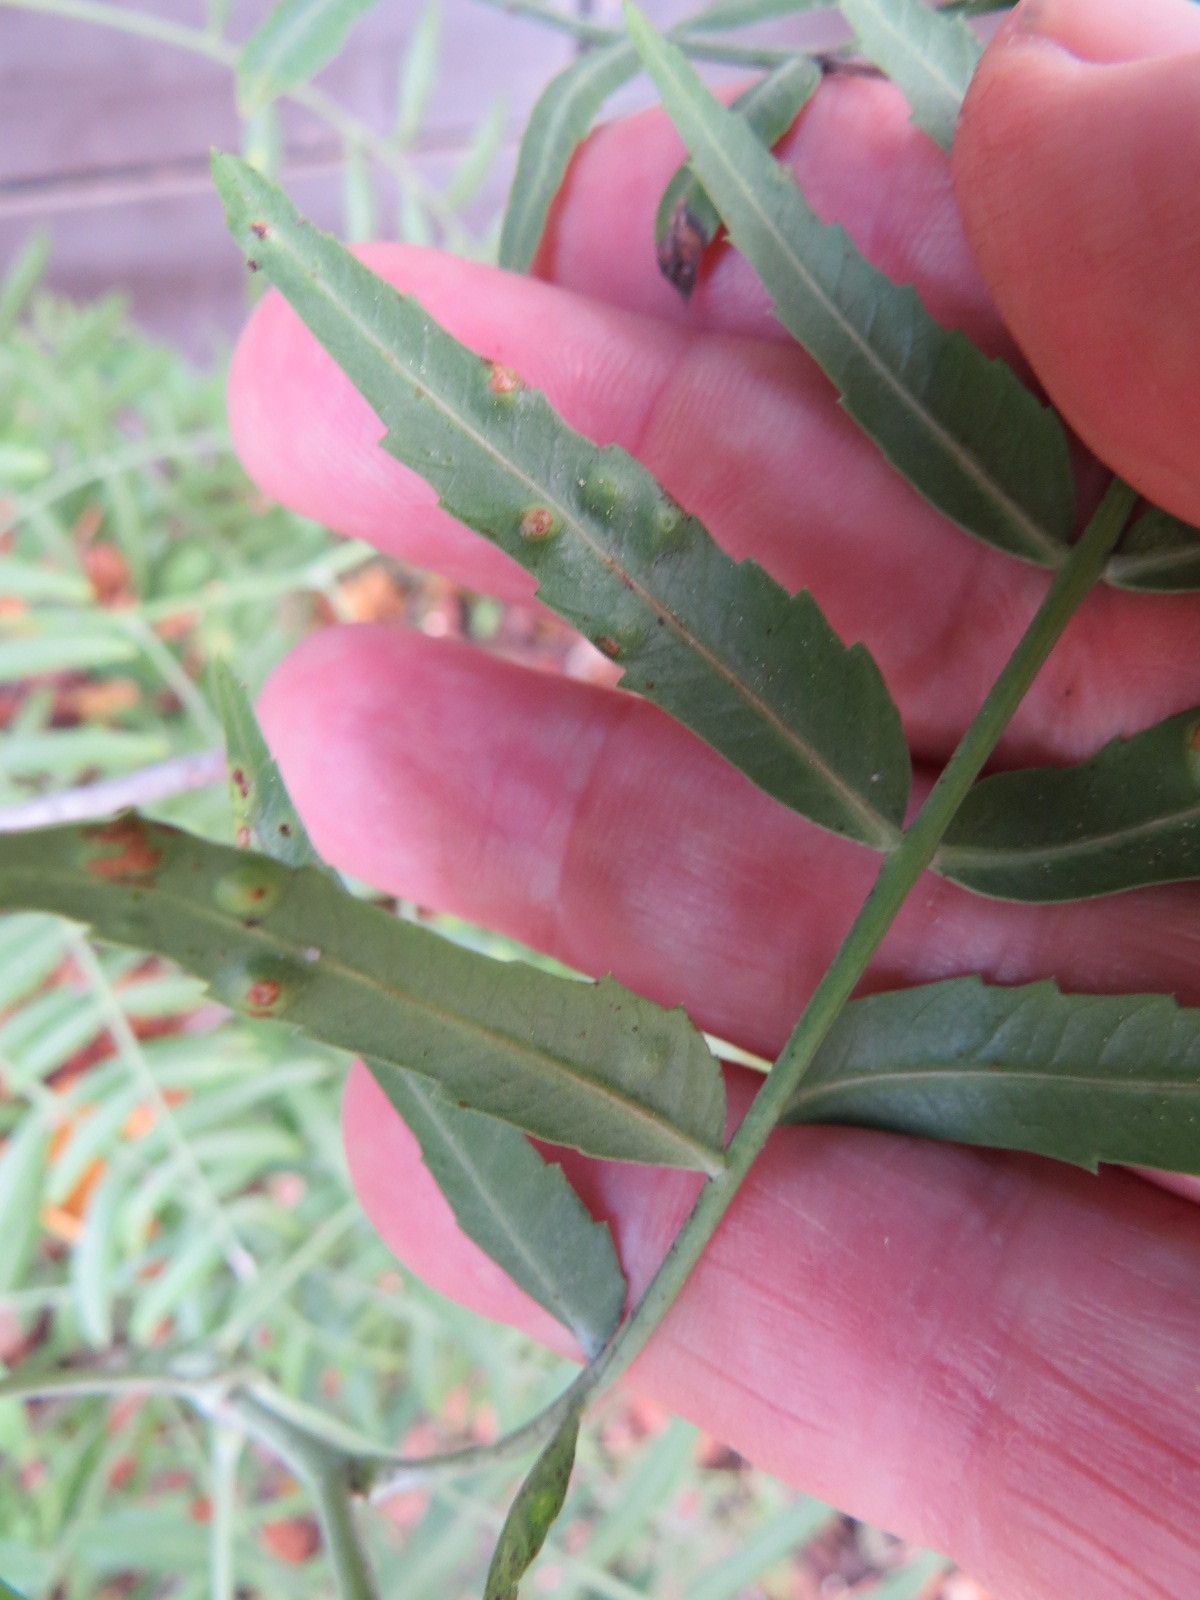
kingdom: Animalia
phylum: Arthropoda
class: Insecta
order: Hemiptera
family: Calophyidae
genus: Calophya
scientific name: Calophya schini
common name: Pepper tree psyllid
